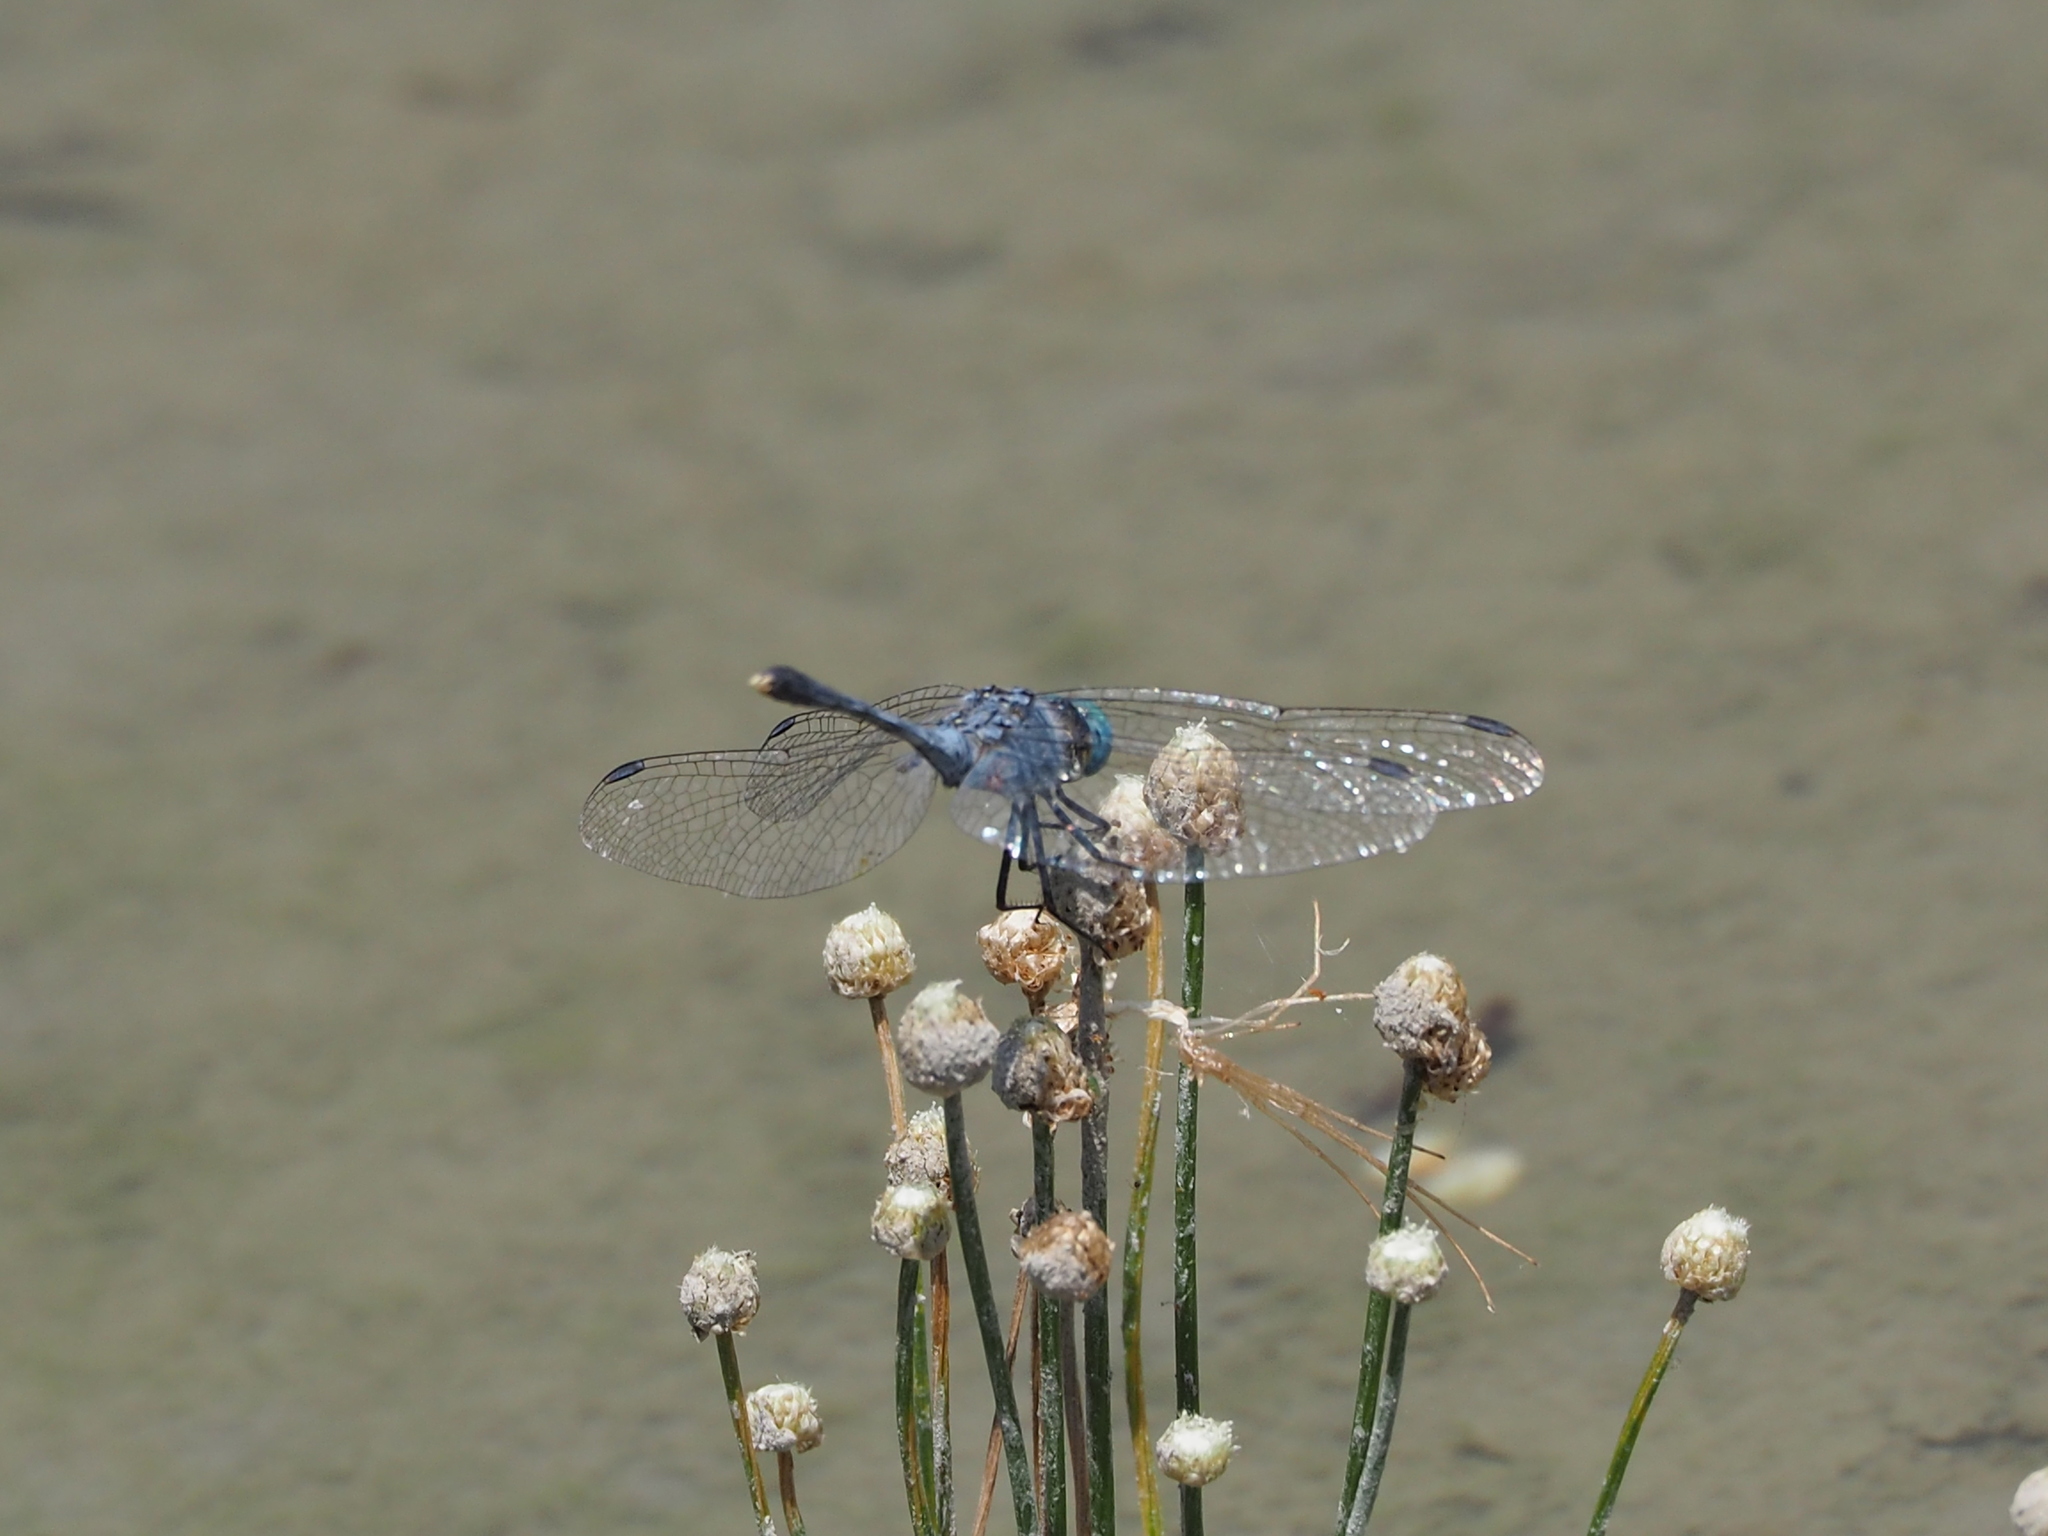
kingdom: Animalia
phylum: Arthropoda
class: Insecta
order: Odonata
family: Libellulidae
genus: Diplacodes
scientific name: Diplacodes trivialis
